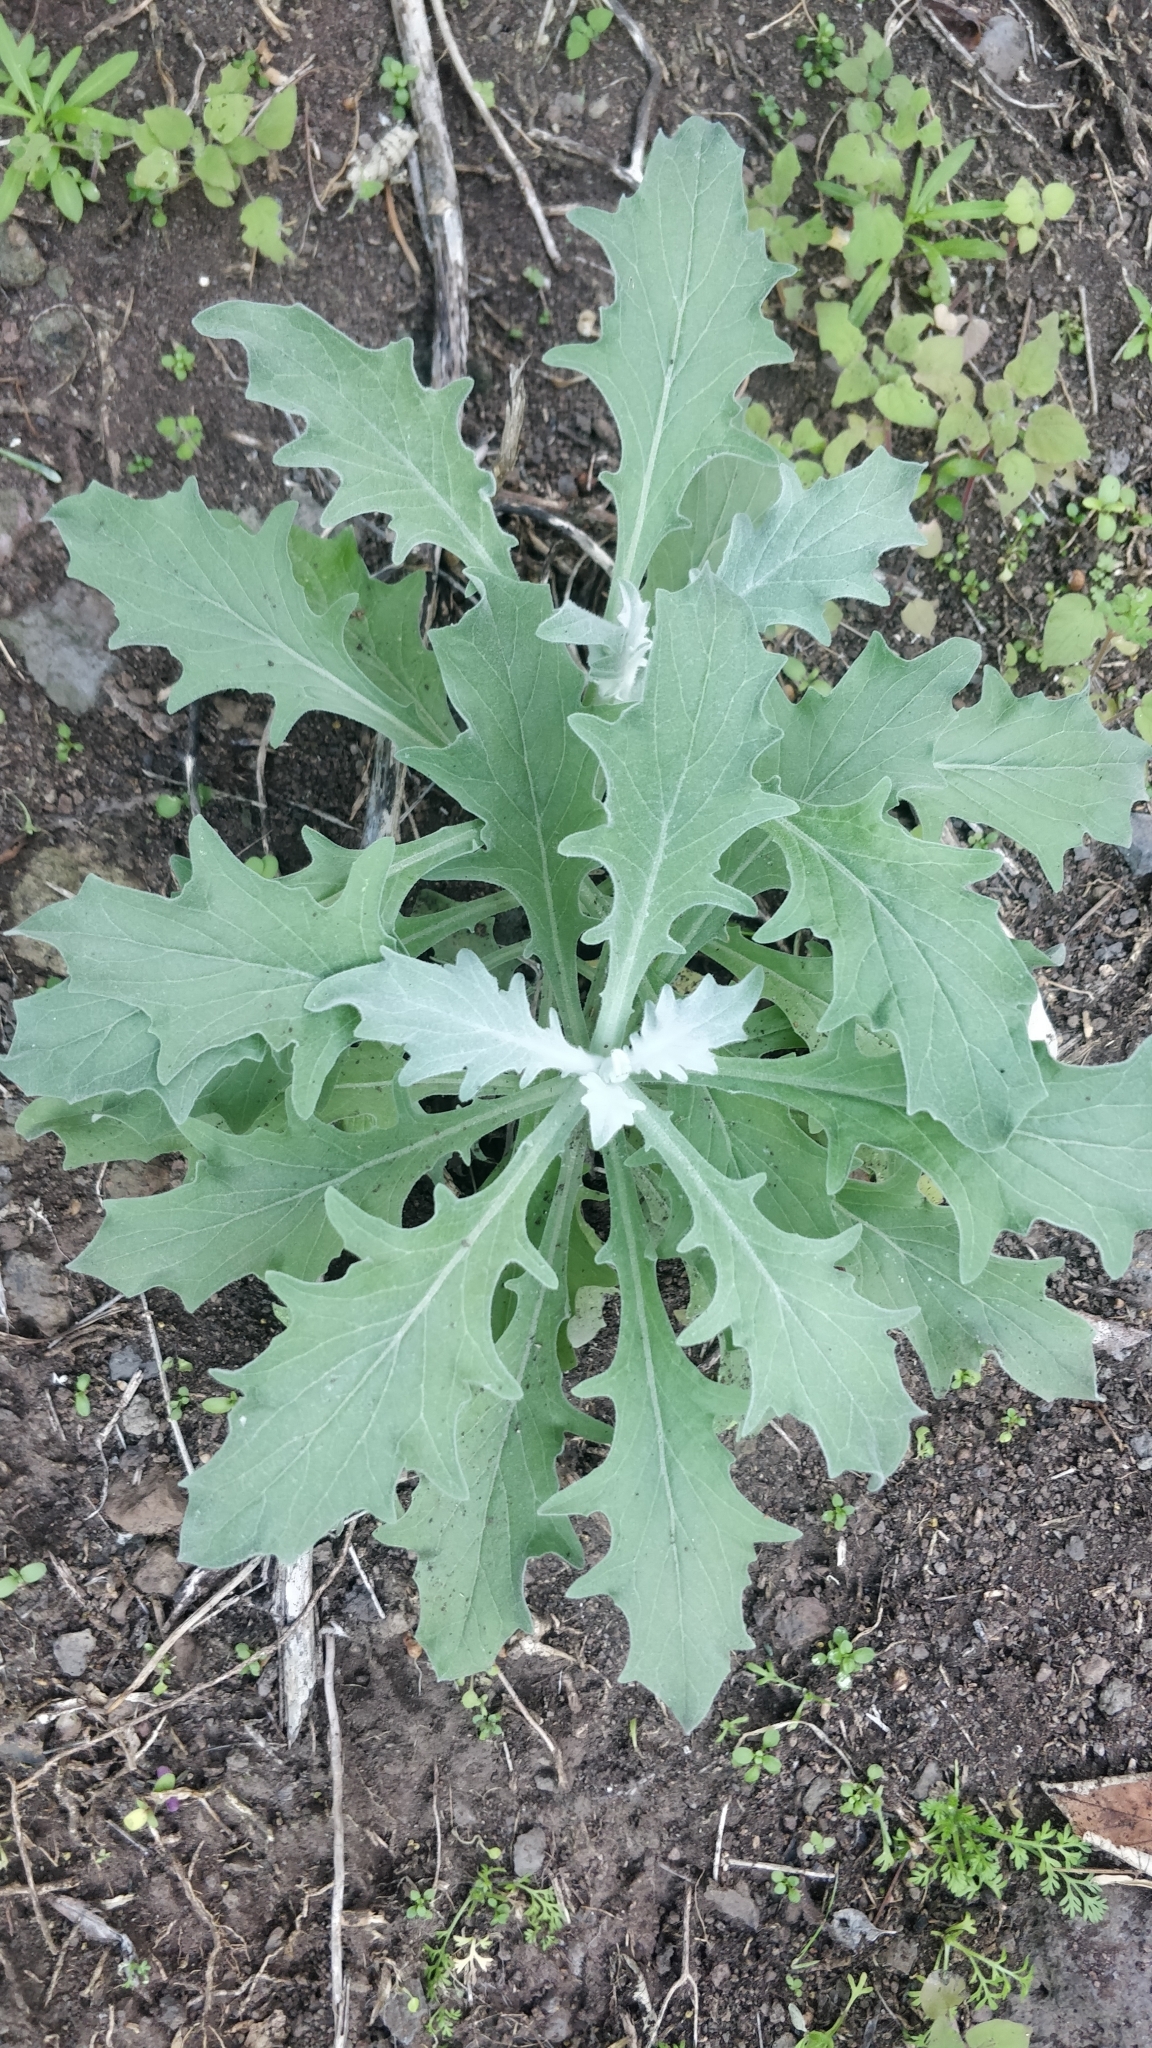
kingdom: Plantae
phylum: Tracheophyta
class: Magnoliopsida
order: Asterales
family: Asteraceae
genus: Andryala
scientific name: Andryala pinnatifida
